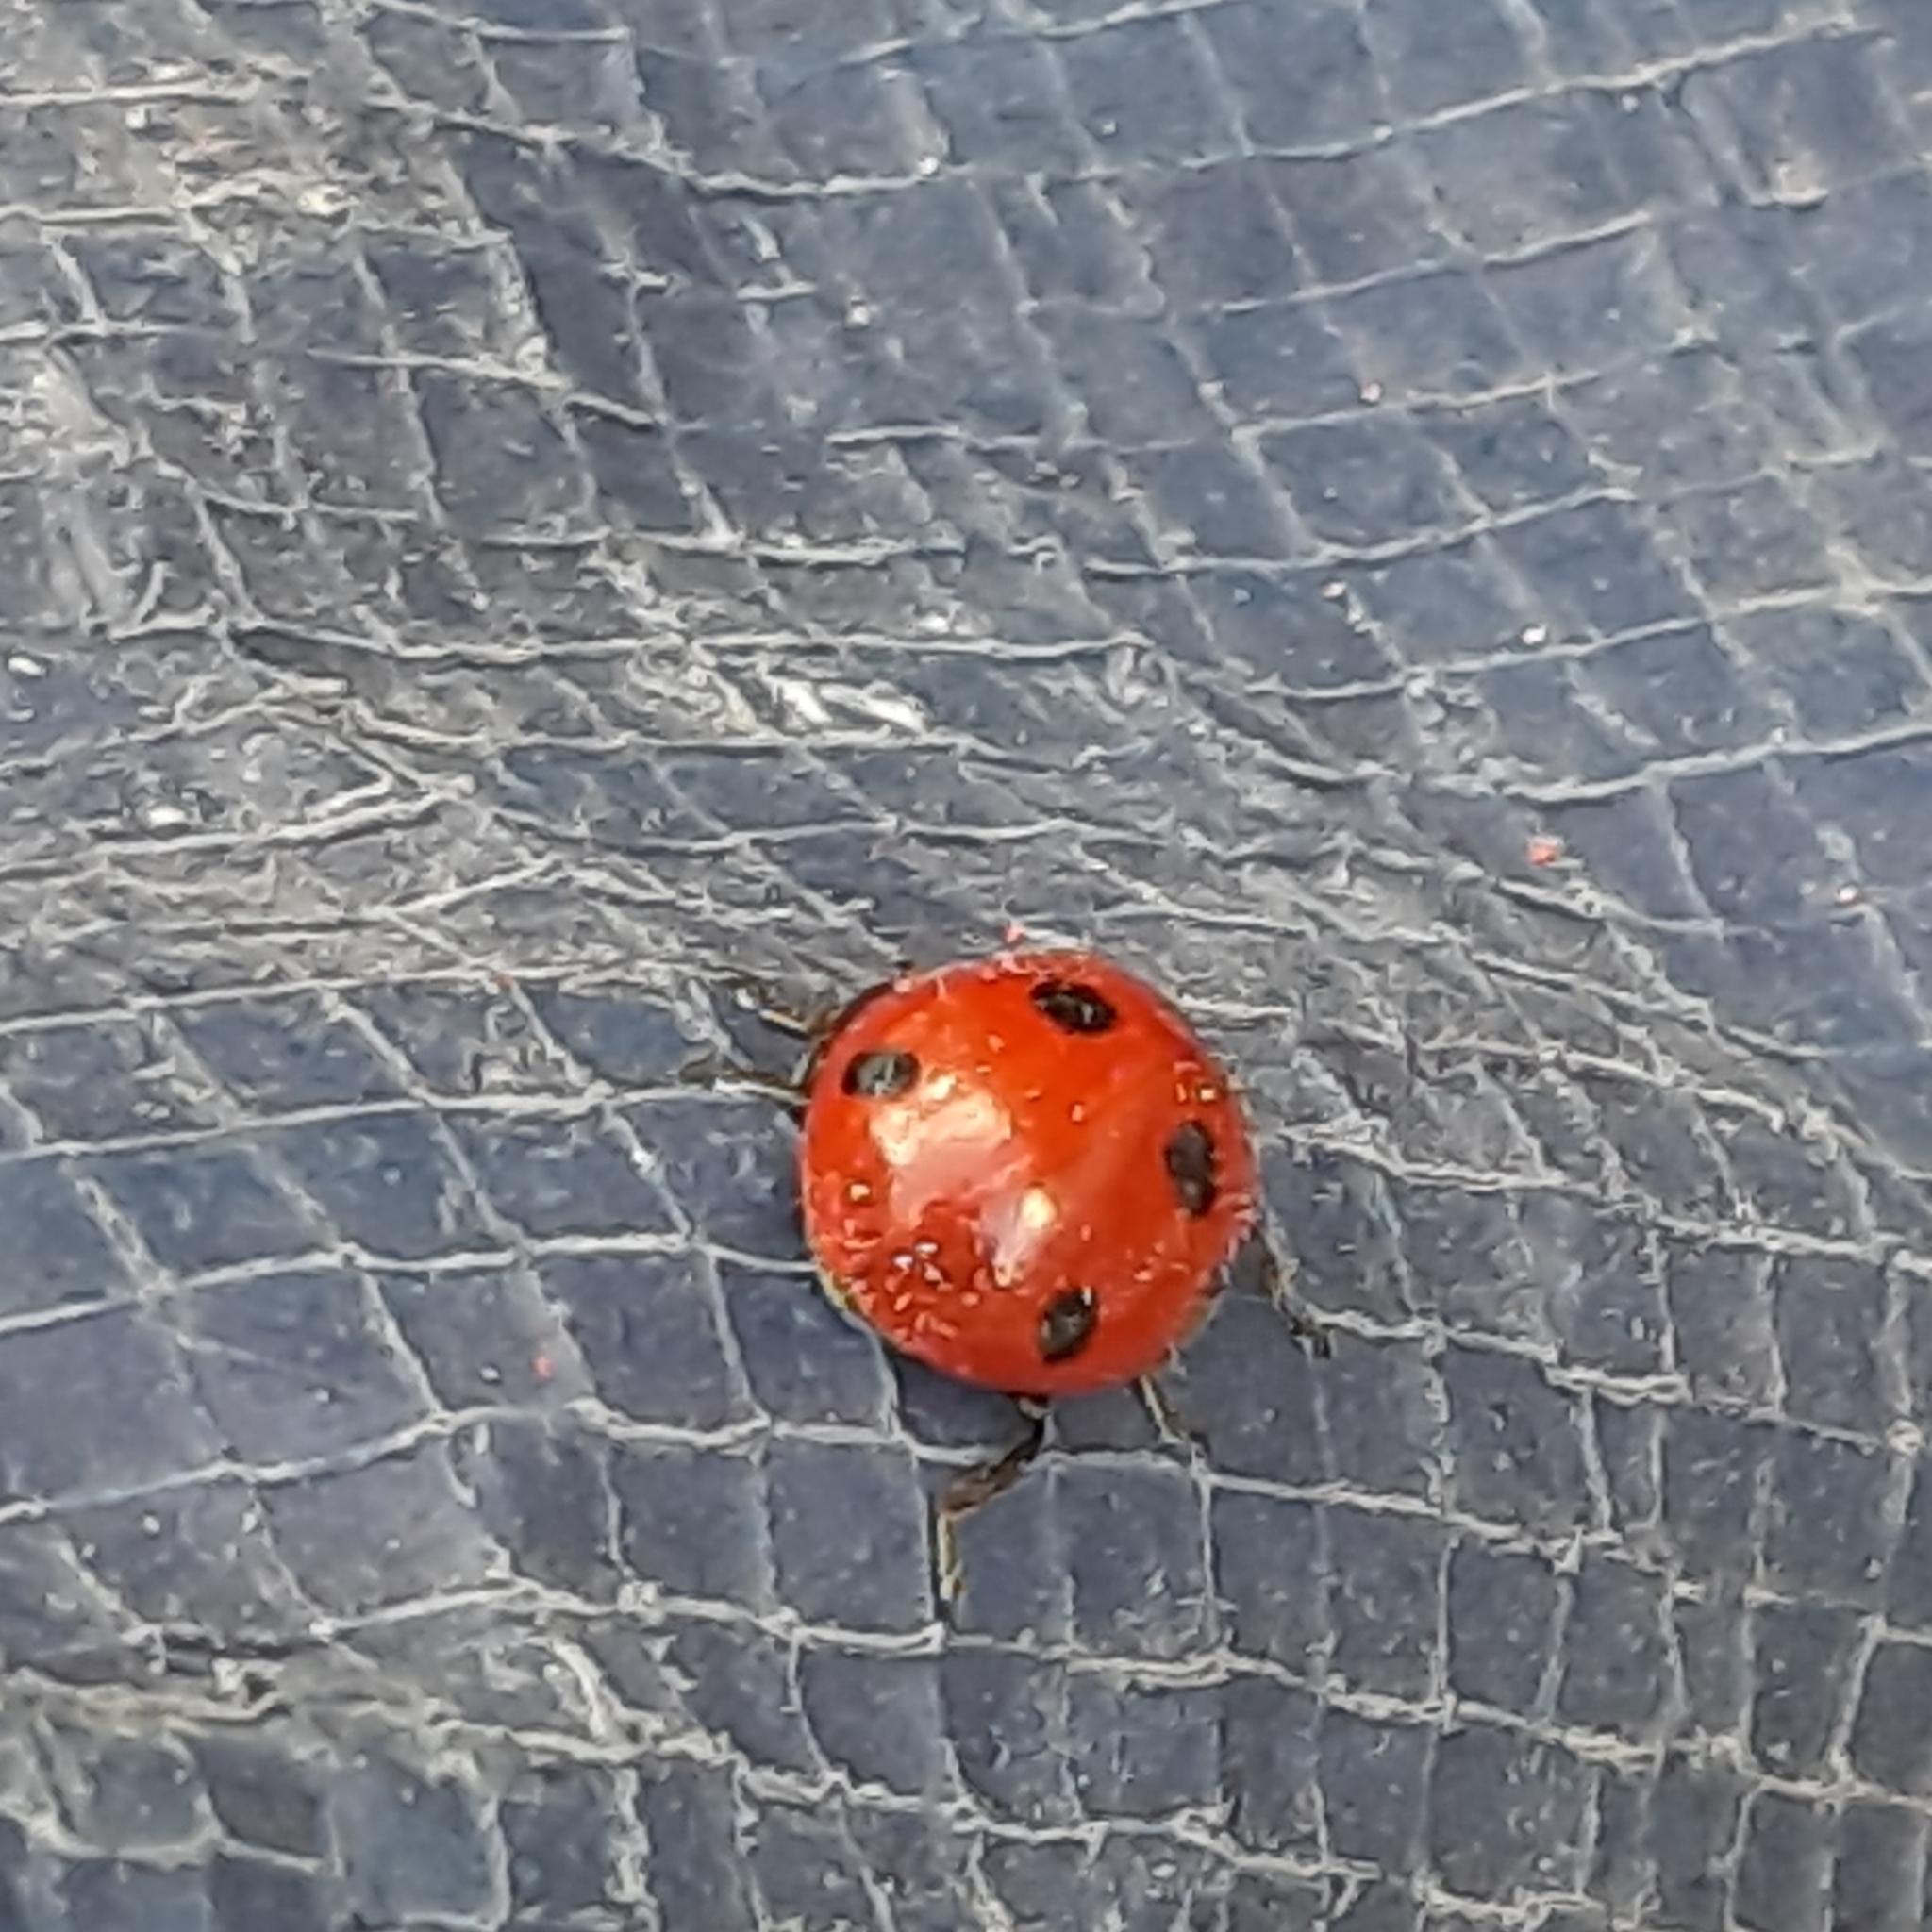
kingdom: Animalia
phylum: Arthropoda
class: Insecta
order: Coleoptera
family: Coccinellidae
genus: Coccinella
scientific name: Coccinella septempunctata
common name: Sevenspotted lady beetle
